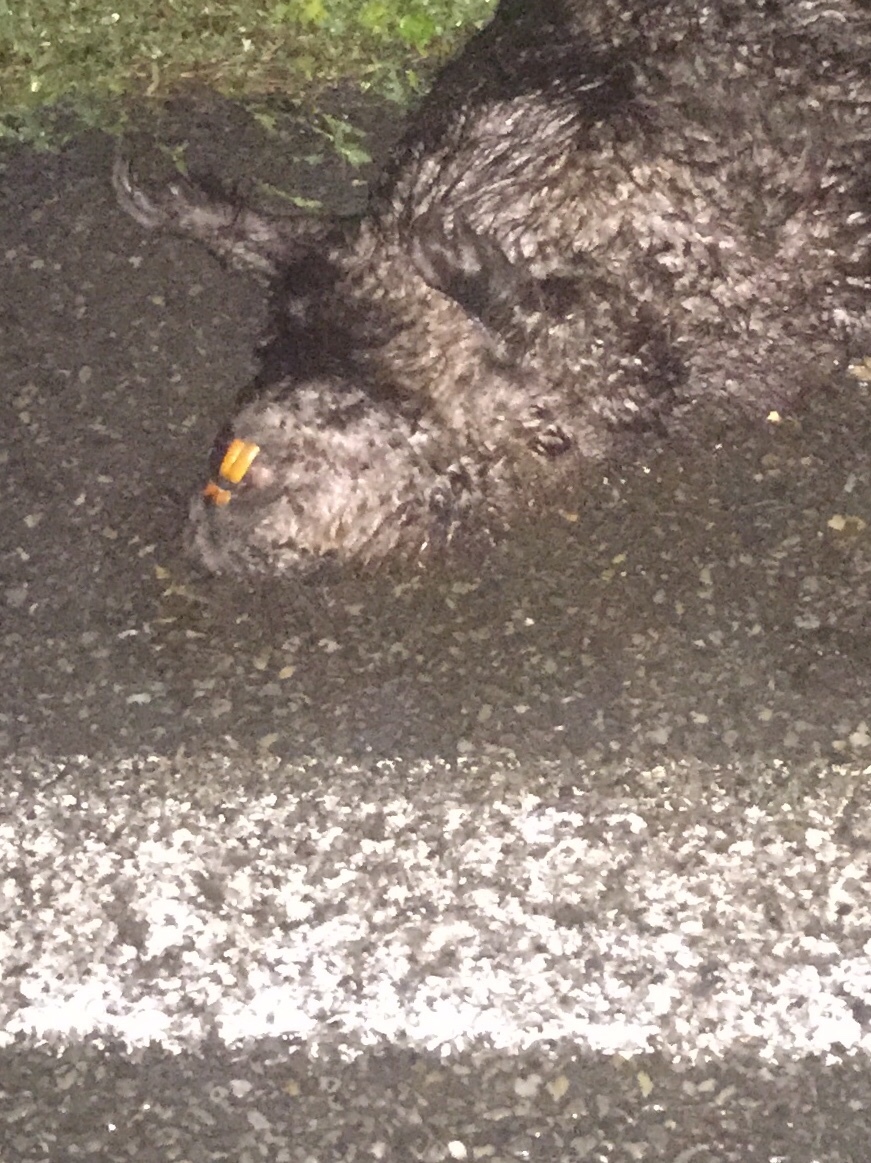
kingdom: Animalia
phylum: Chordata
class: Mammalia
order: Rodentia
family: Castoridae
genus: Castor
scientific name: Castor fiber
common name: Eurasian beaver
